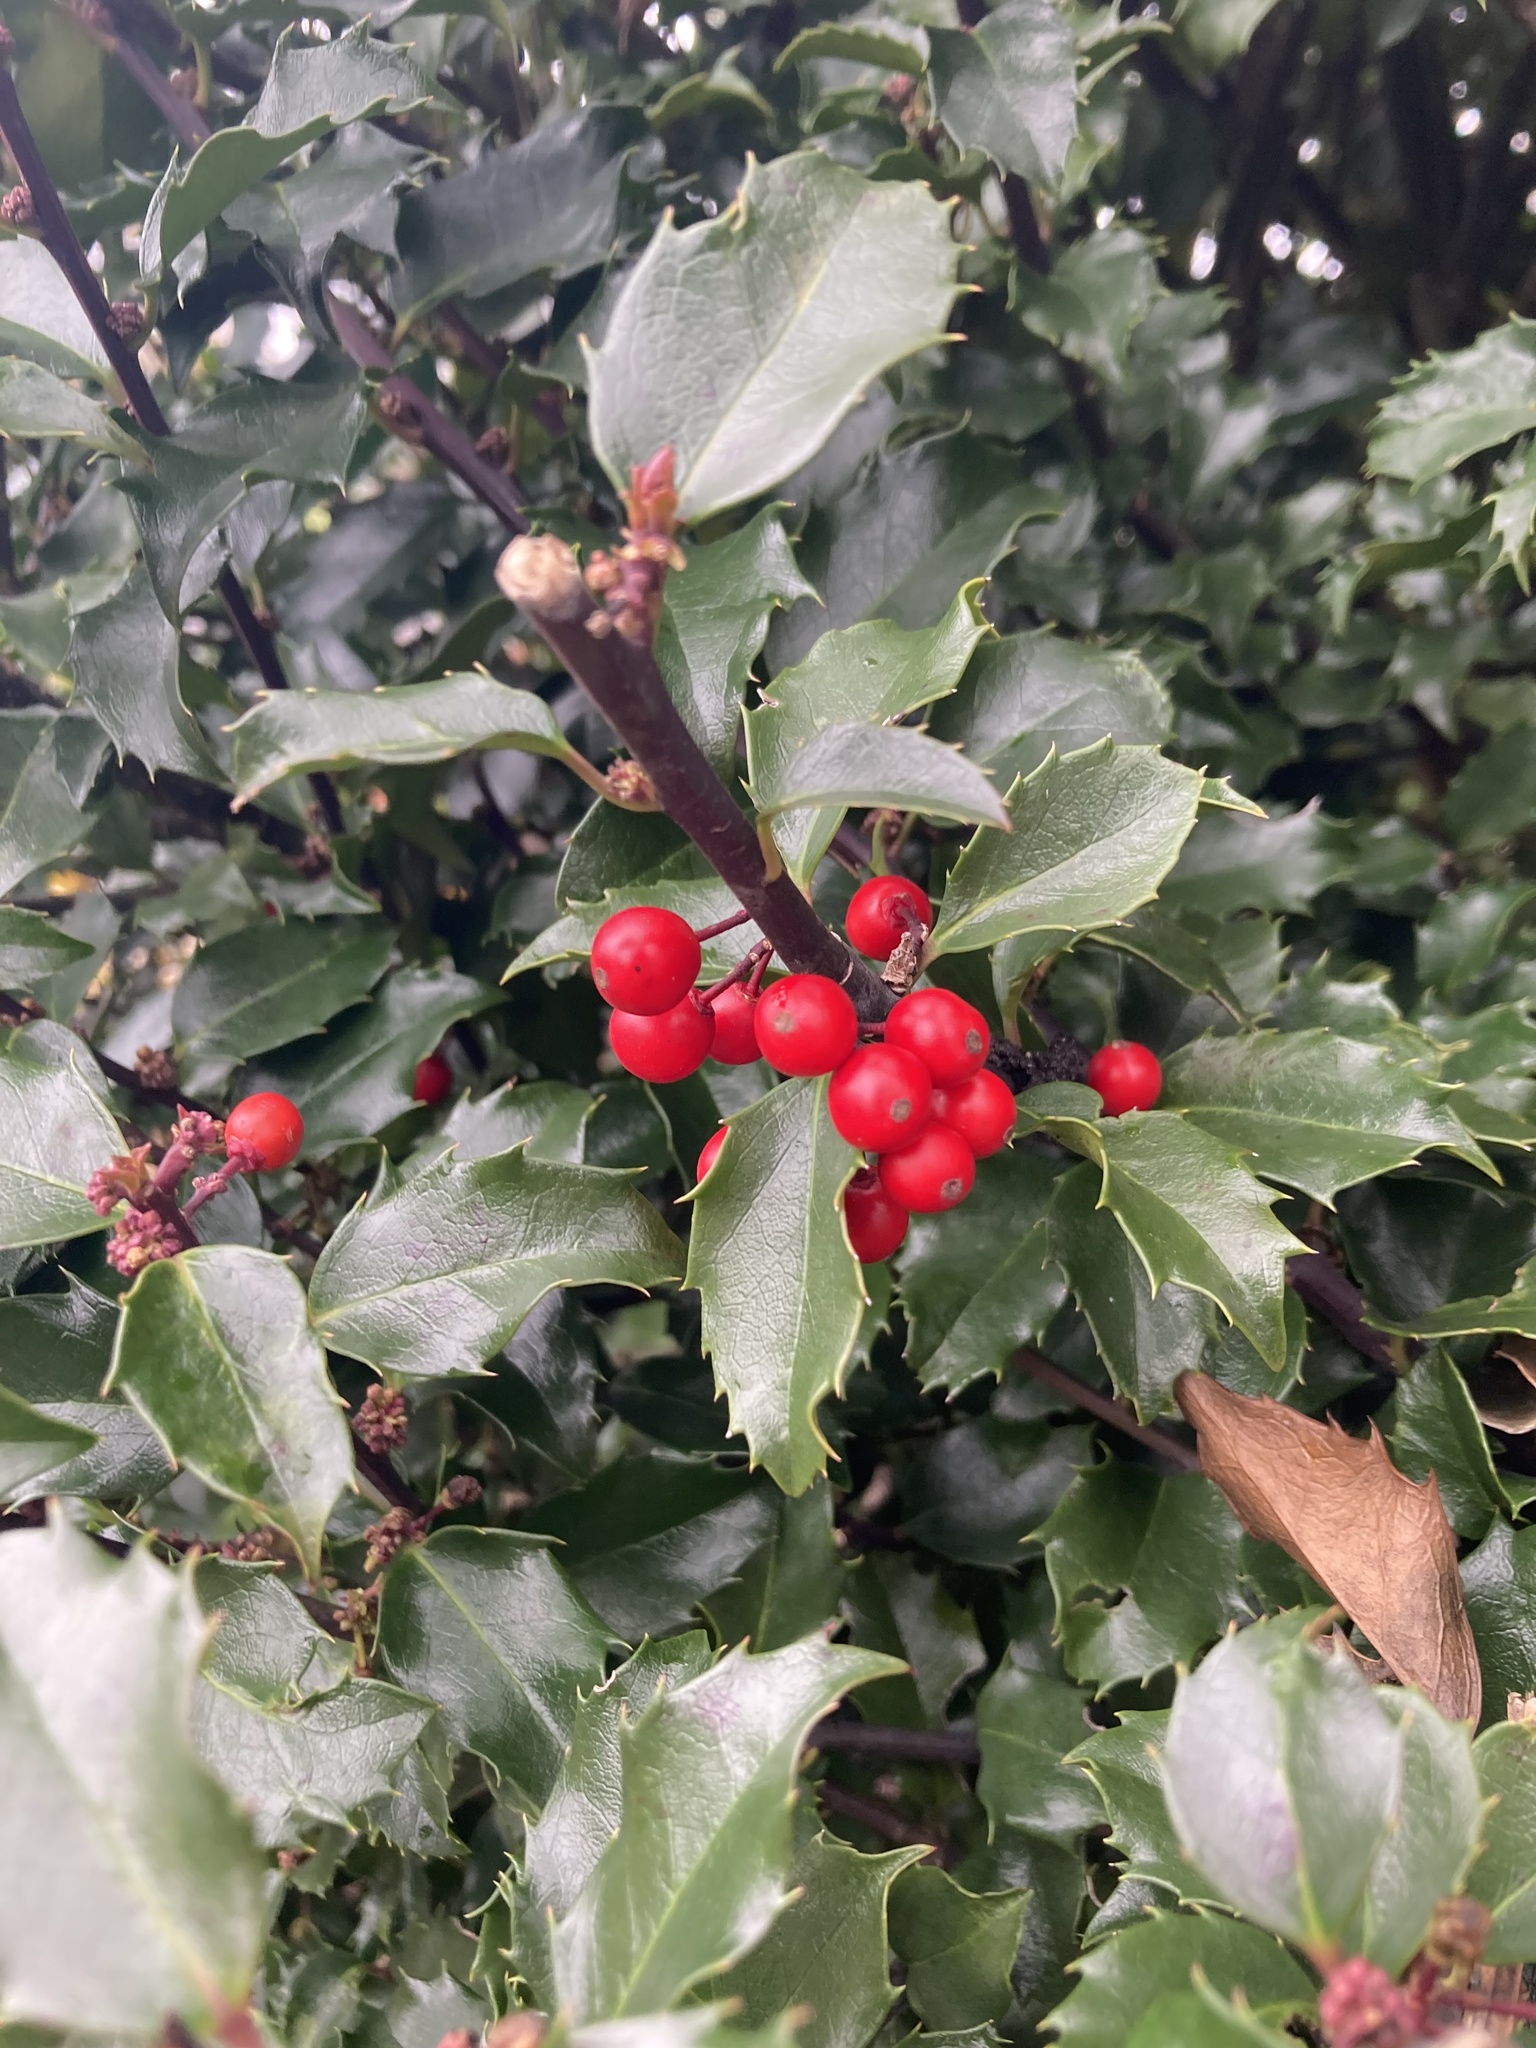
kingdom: Plantae
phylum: Tracheophyta
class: Magnoliopsida
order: Aquifoliales
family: Aquifoliaceae
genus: Ilex
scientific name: Ilex opaca
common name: American holly
